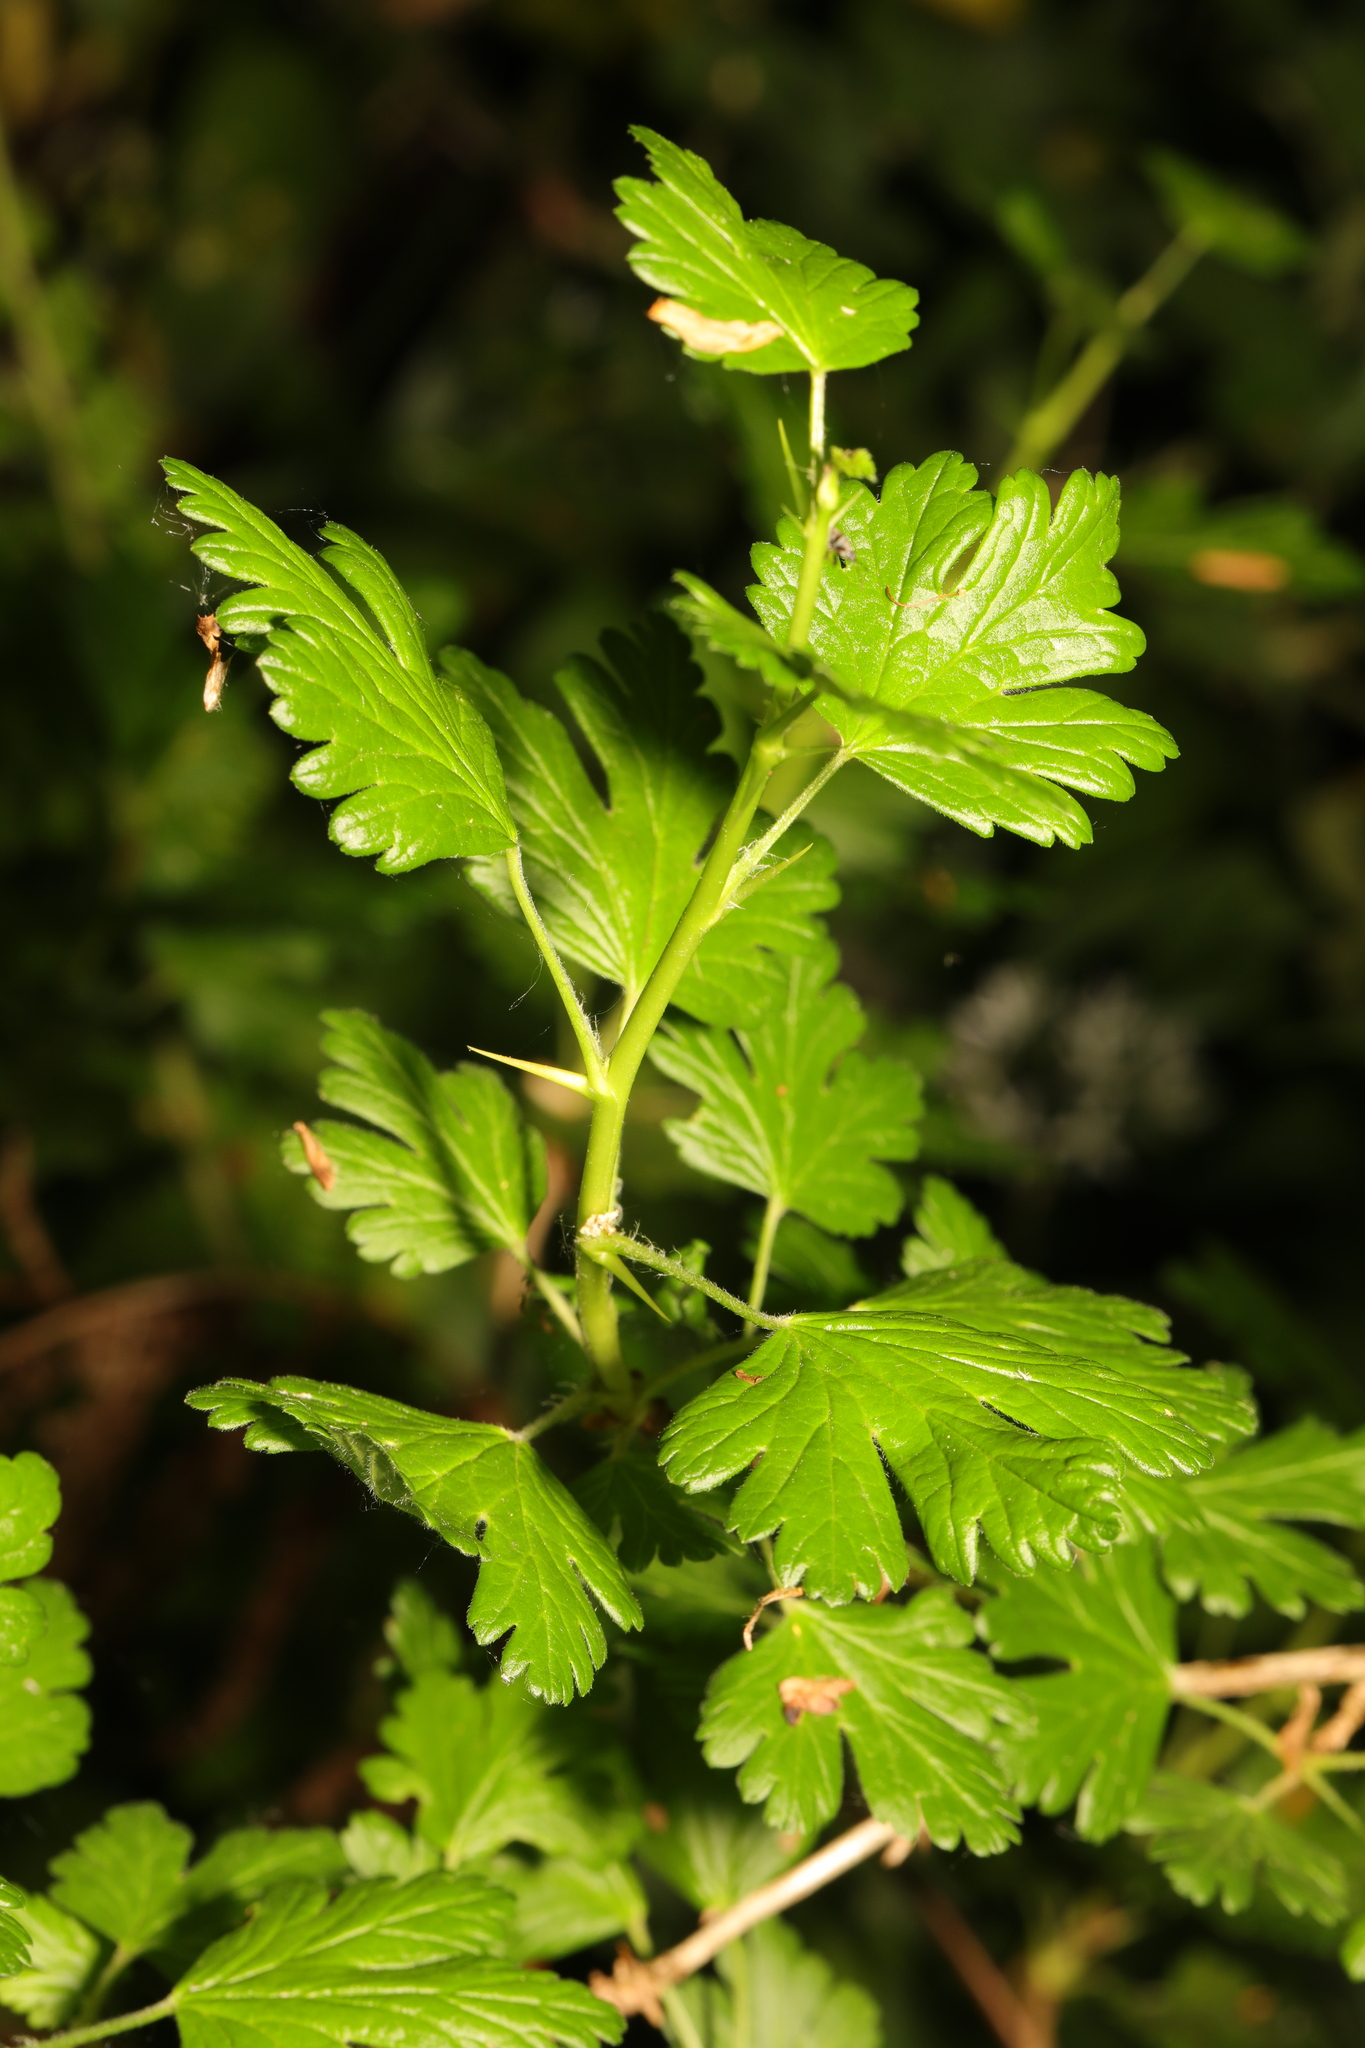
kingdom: Plantae
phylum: Tracheophyta
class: Magnoliopsida
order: Saxifragales
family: Grossulariaceae
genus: Ribes
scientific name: Ribes uva-crispa
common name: Gooseberry
